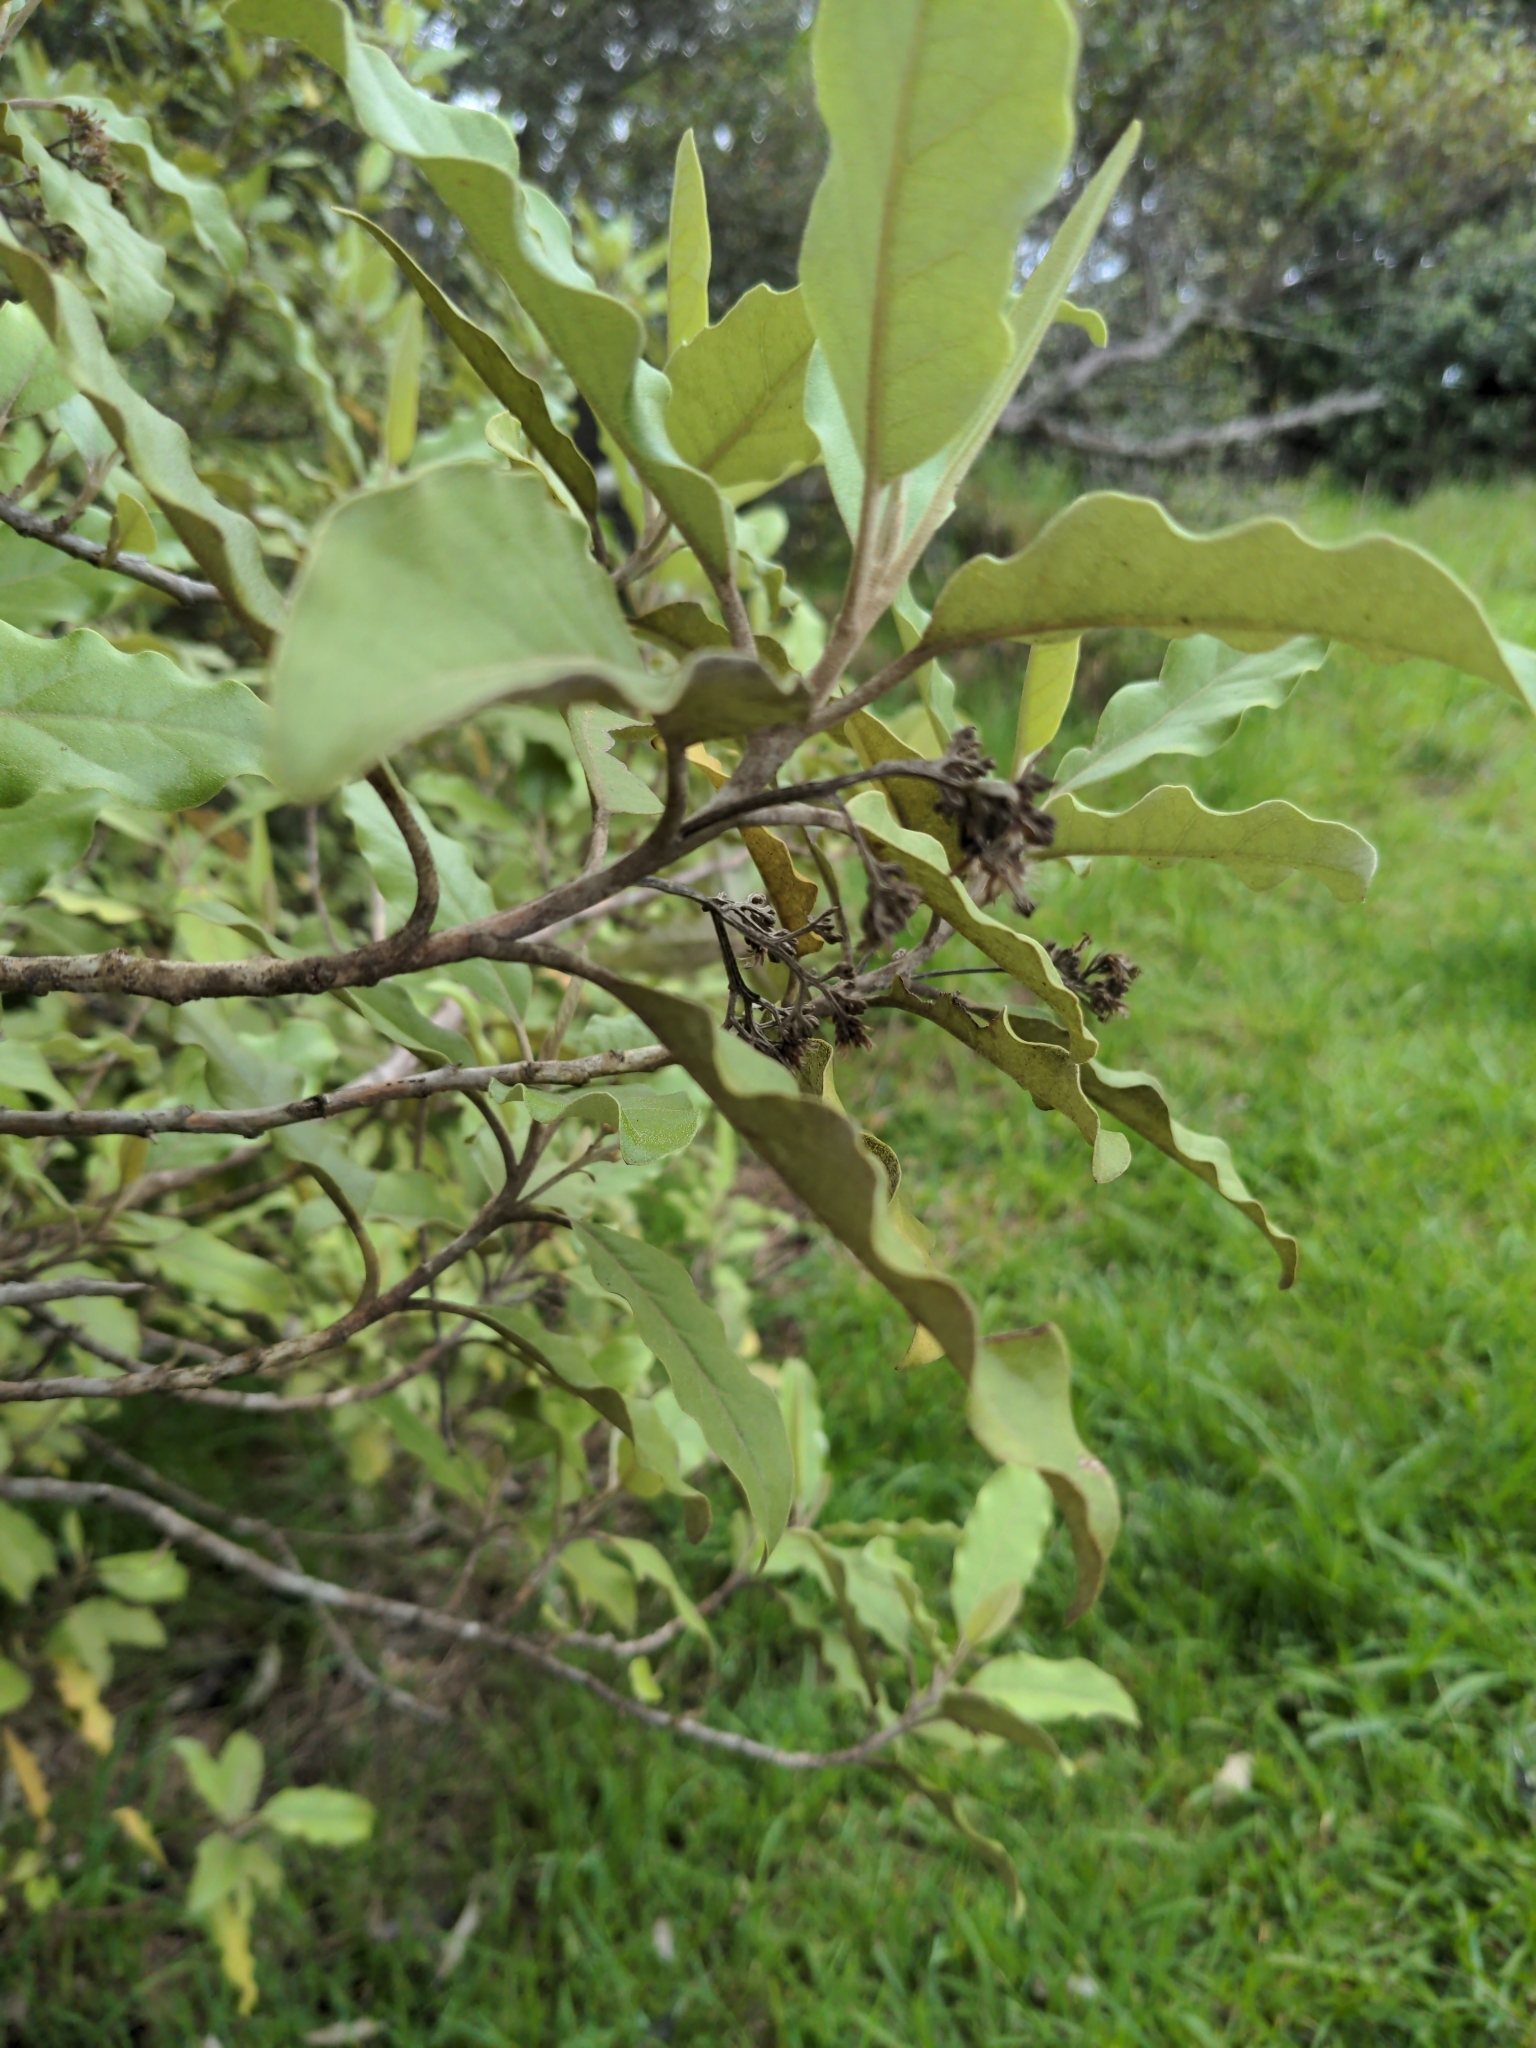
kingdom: Plantae
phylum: Tracheophyta
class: Magnoliopsida
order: Asterales
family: Asteraceae
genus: Olearia
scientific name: Olearia paniculata
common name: Akiraho
